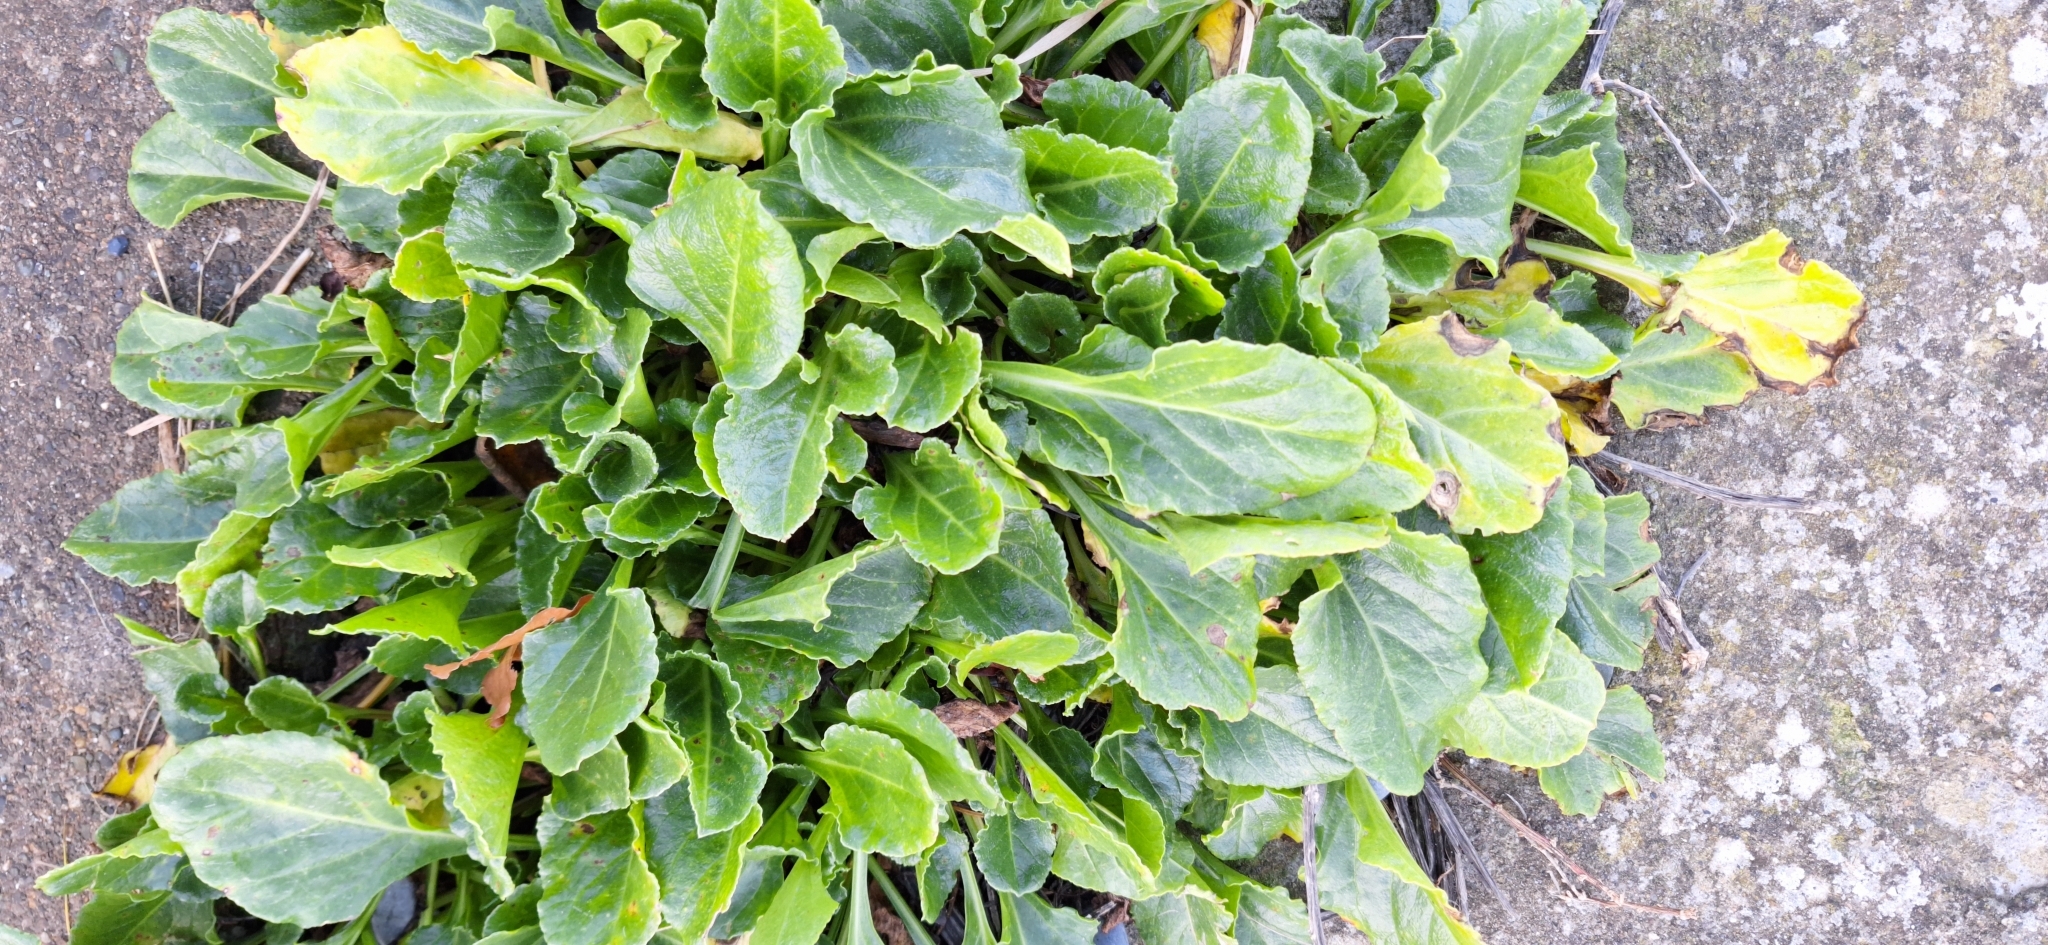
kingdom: Plantae
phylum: Tracheophyta
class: Magnoliopsida
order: Caryophyllales
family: Amaranthaceae
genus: Beta
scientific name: Beta vulgaris
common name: Beet
